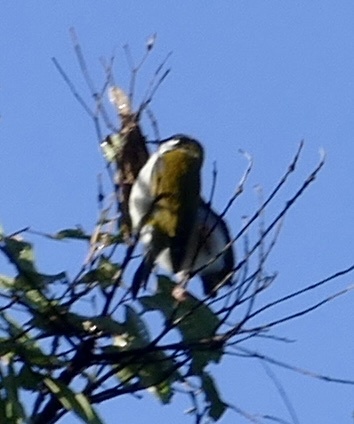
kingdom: Animalia
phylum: Chordata
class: Aves
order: Passeriformes
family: Meliphagidae
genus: Melithreptus
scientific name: Melithreptus lunatus
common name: White-naped honeyeater
